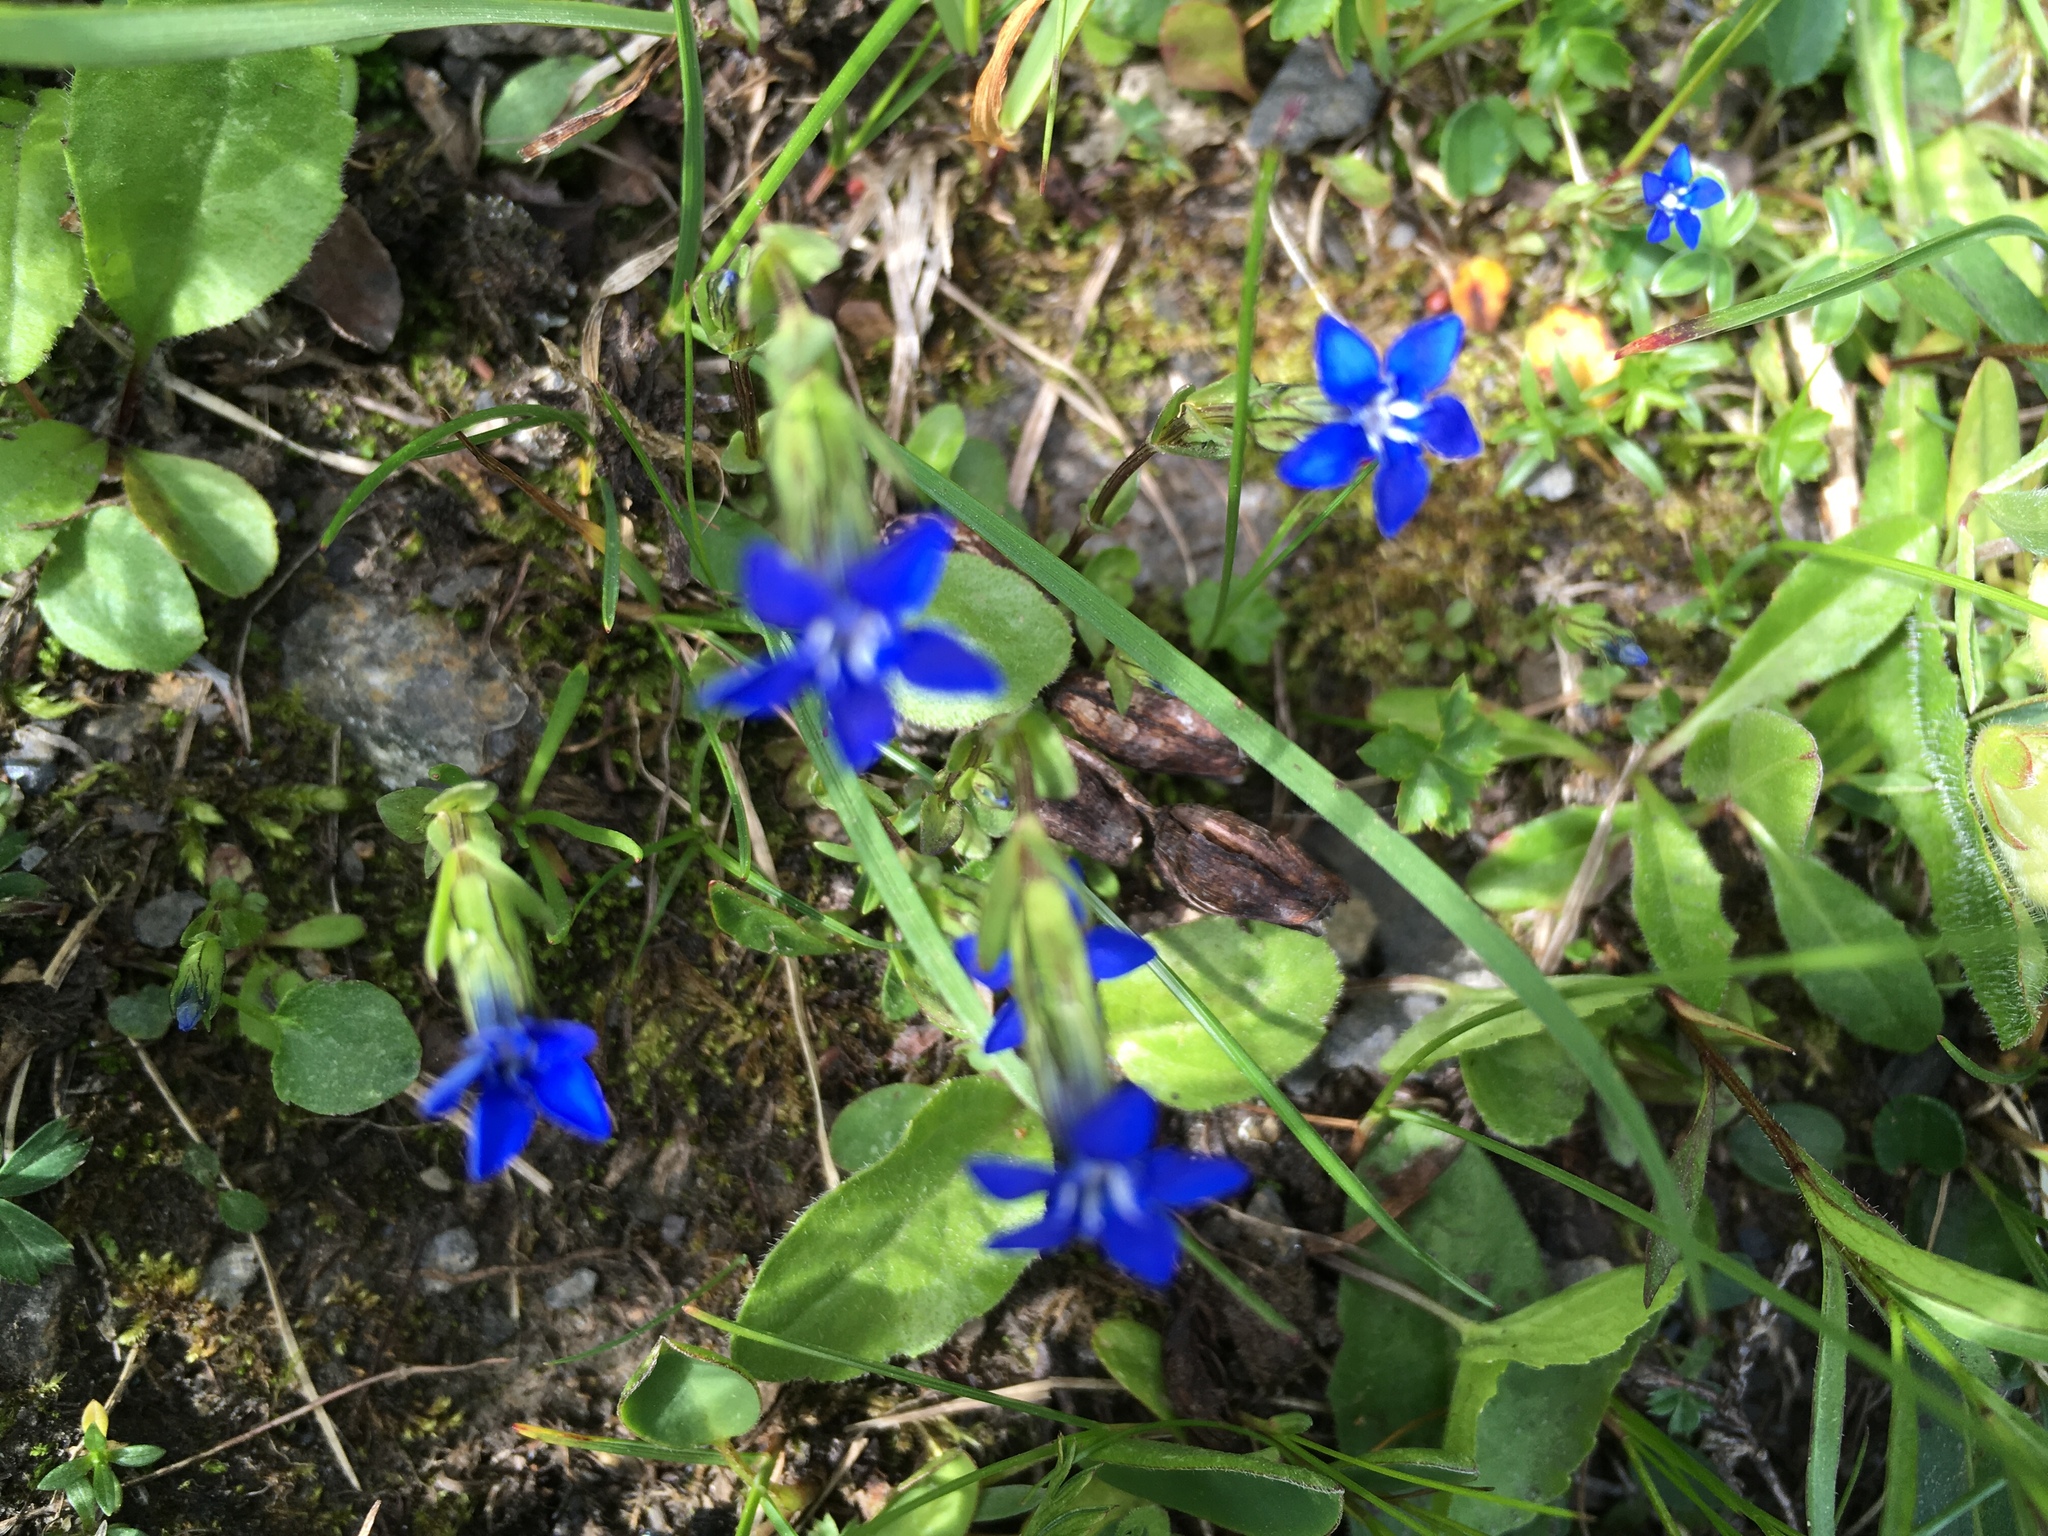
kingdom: Plantae
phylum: Tracheophyta
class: Magnoliopsida
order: Gentianales
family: Gentianaceae
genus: Gentiana
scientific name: Gentiana nivalis
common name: Alpine gentian
